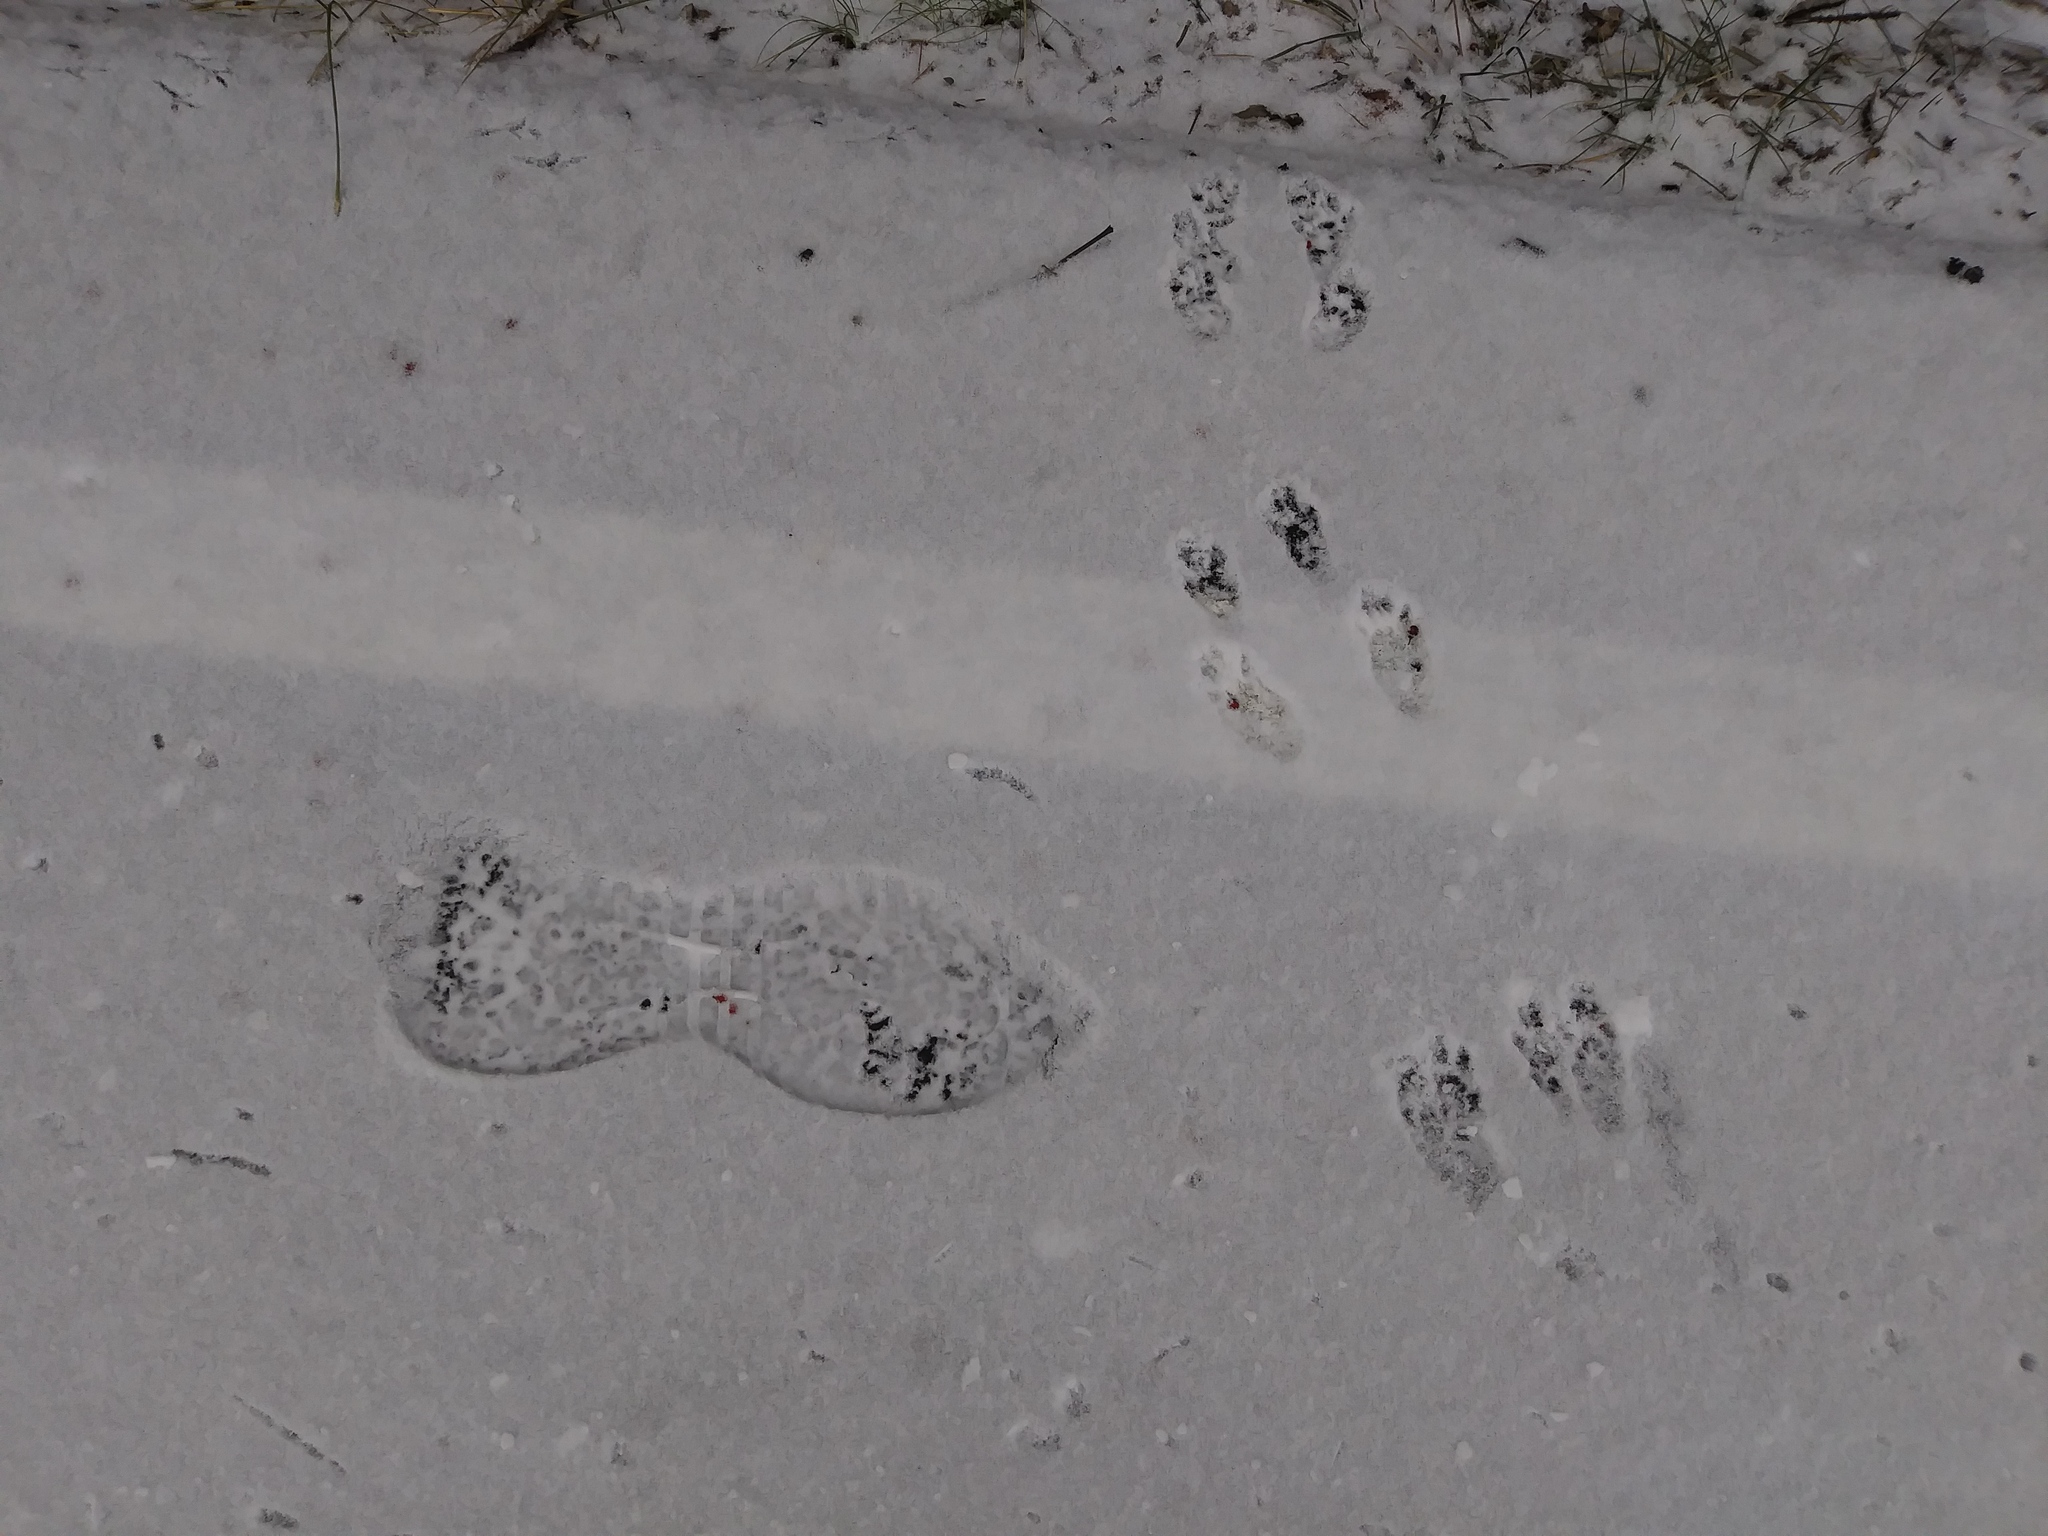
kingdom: Animalia
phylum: Chordata
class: Mammalia
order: Rodentia
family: Sciuridae
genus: Sciurus
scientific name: Sciurus carolinensis
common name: Eastern gray squirrel
